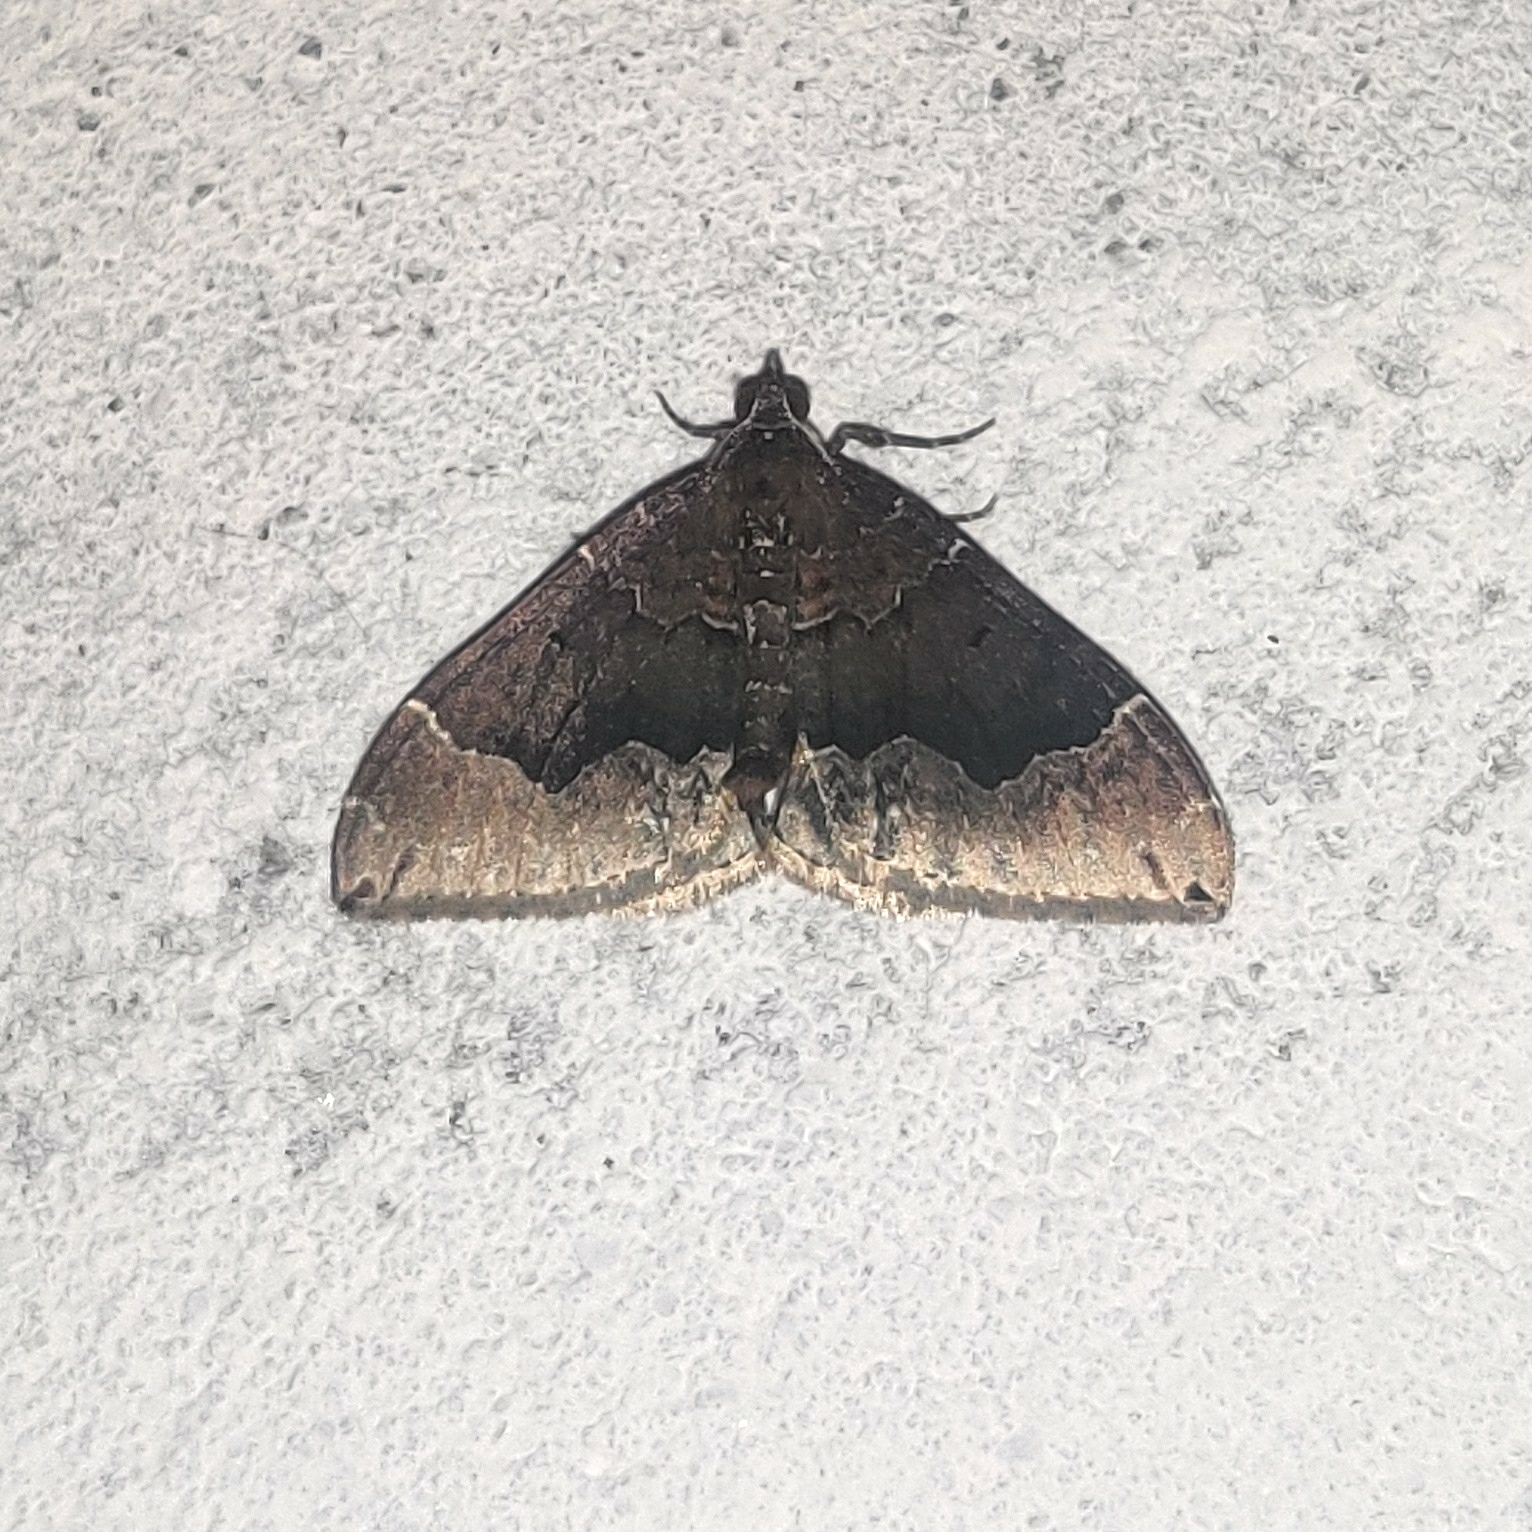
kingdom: Animalia
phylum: Arthropoda
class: Insecta
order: Lepidoptera
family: Geometridae
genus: Xenortholitha
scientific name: Xenortholitha propinguata
